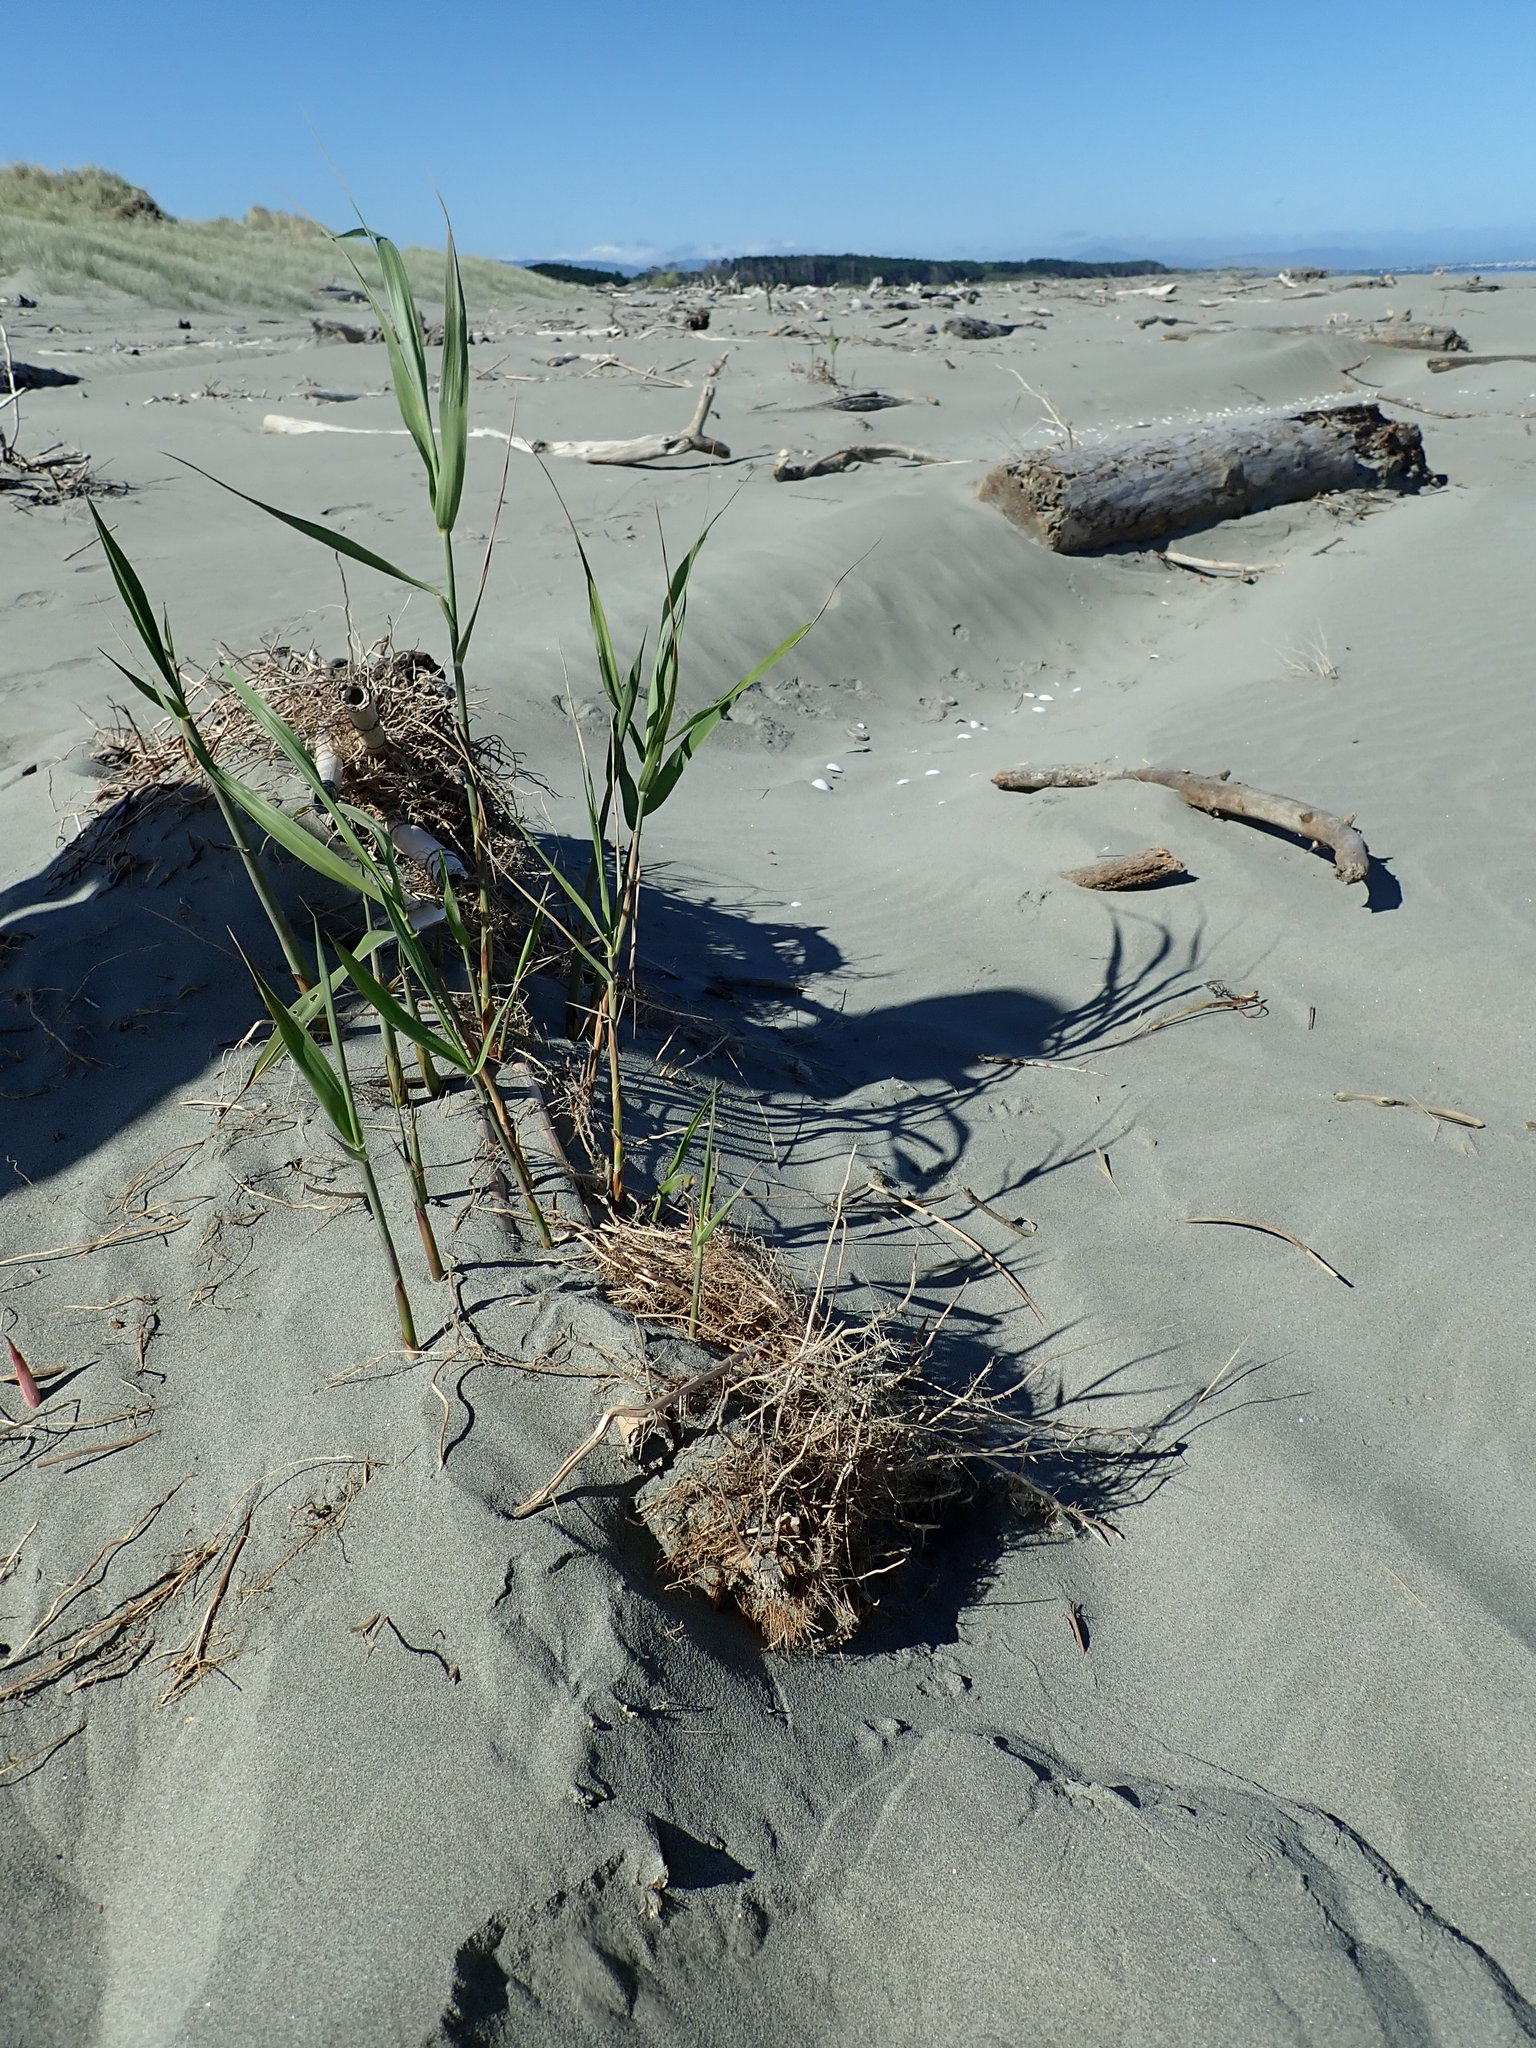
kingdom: Plantae
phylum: Tracheophyta
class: Liliopsida
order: Poales
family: Poaceae
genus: Phragmites
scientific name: Phragmites karka
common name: Tropical reed
